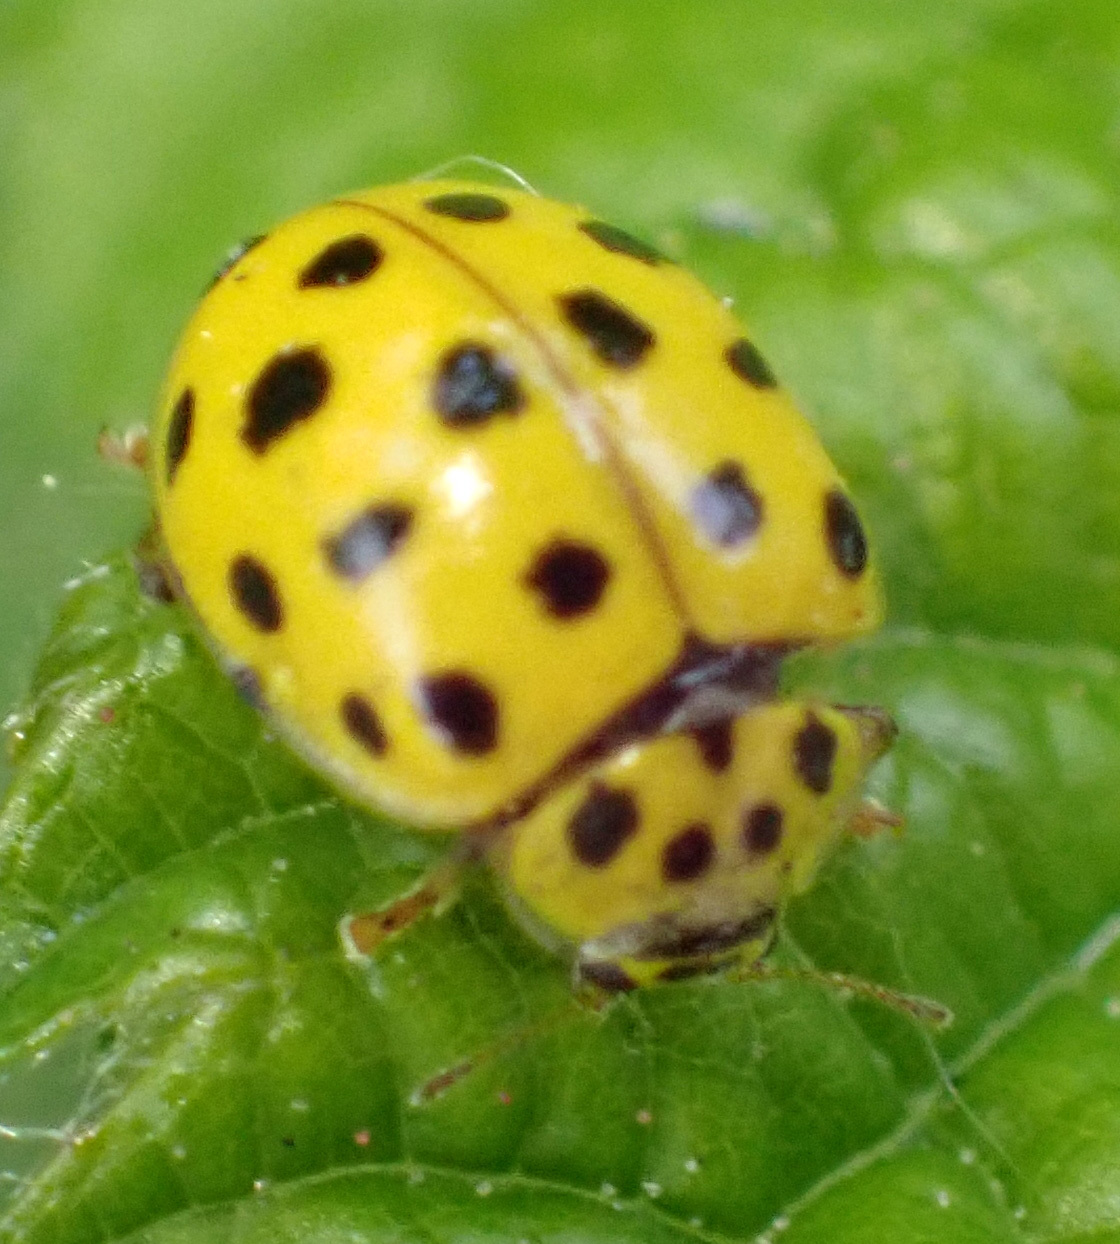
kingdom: Animalia
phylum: Arthropoda
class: Insecta
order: Coleoptera
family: Coccinellidae
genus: Psyllobora
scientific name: Psyllobora vigintiduopunctata
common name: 22-spot ladybird
